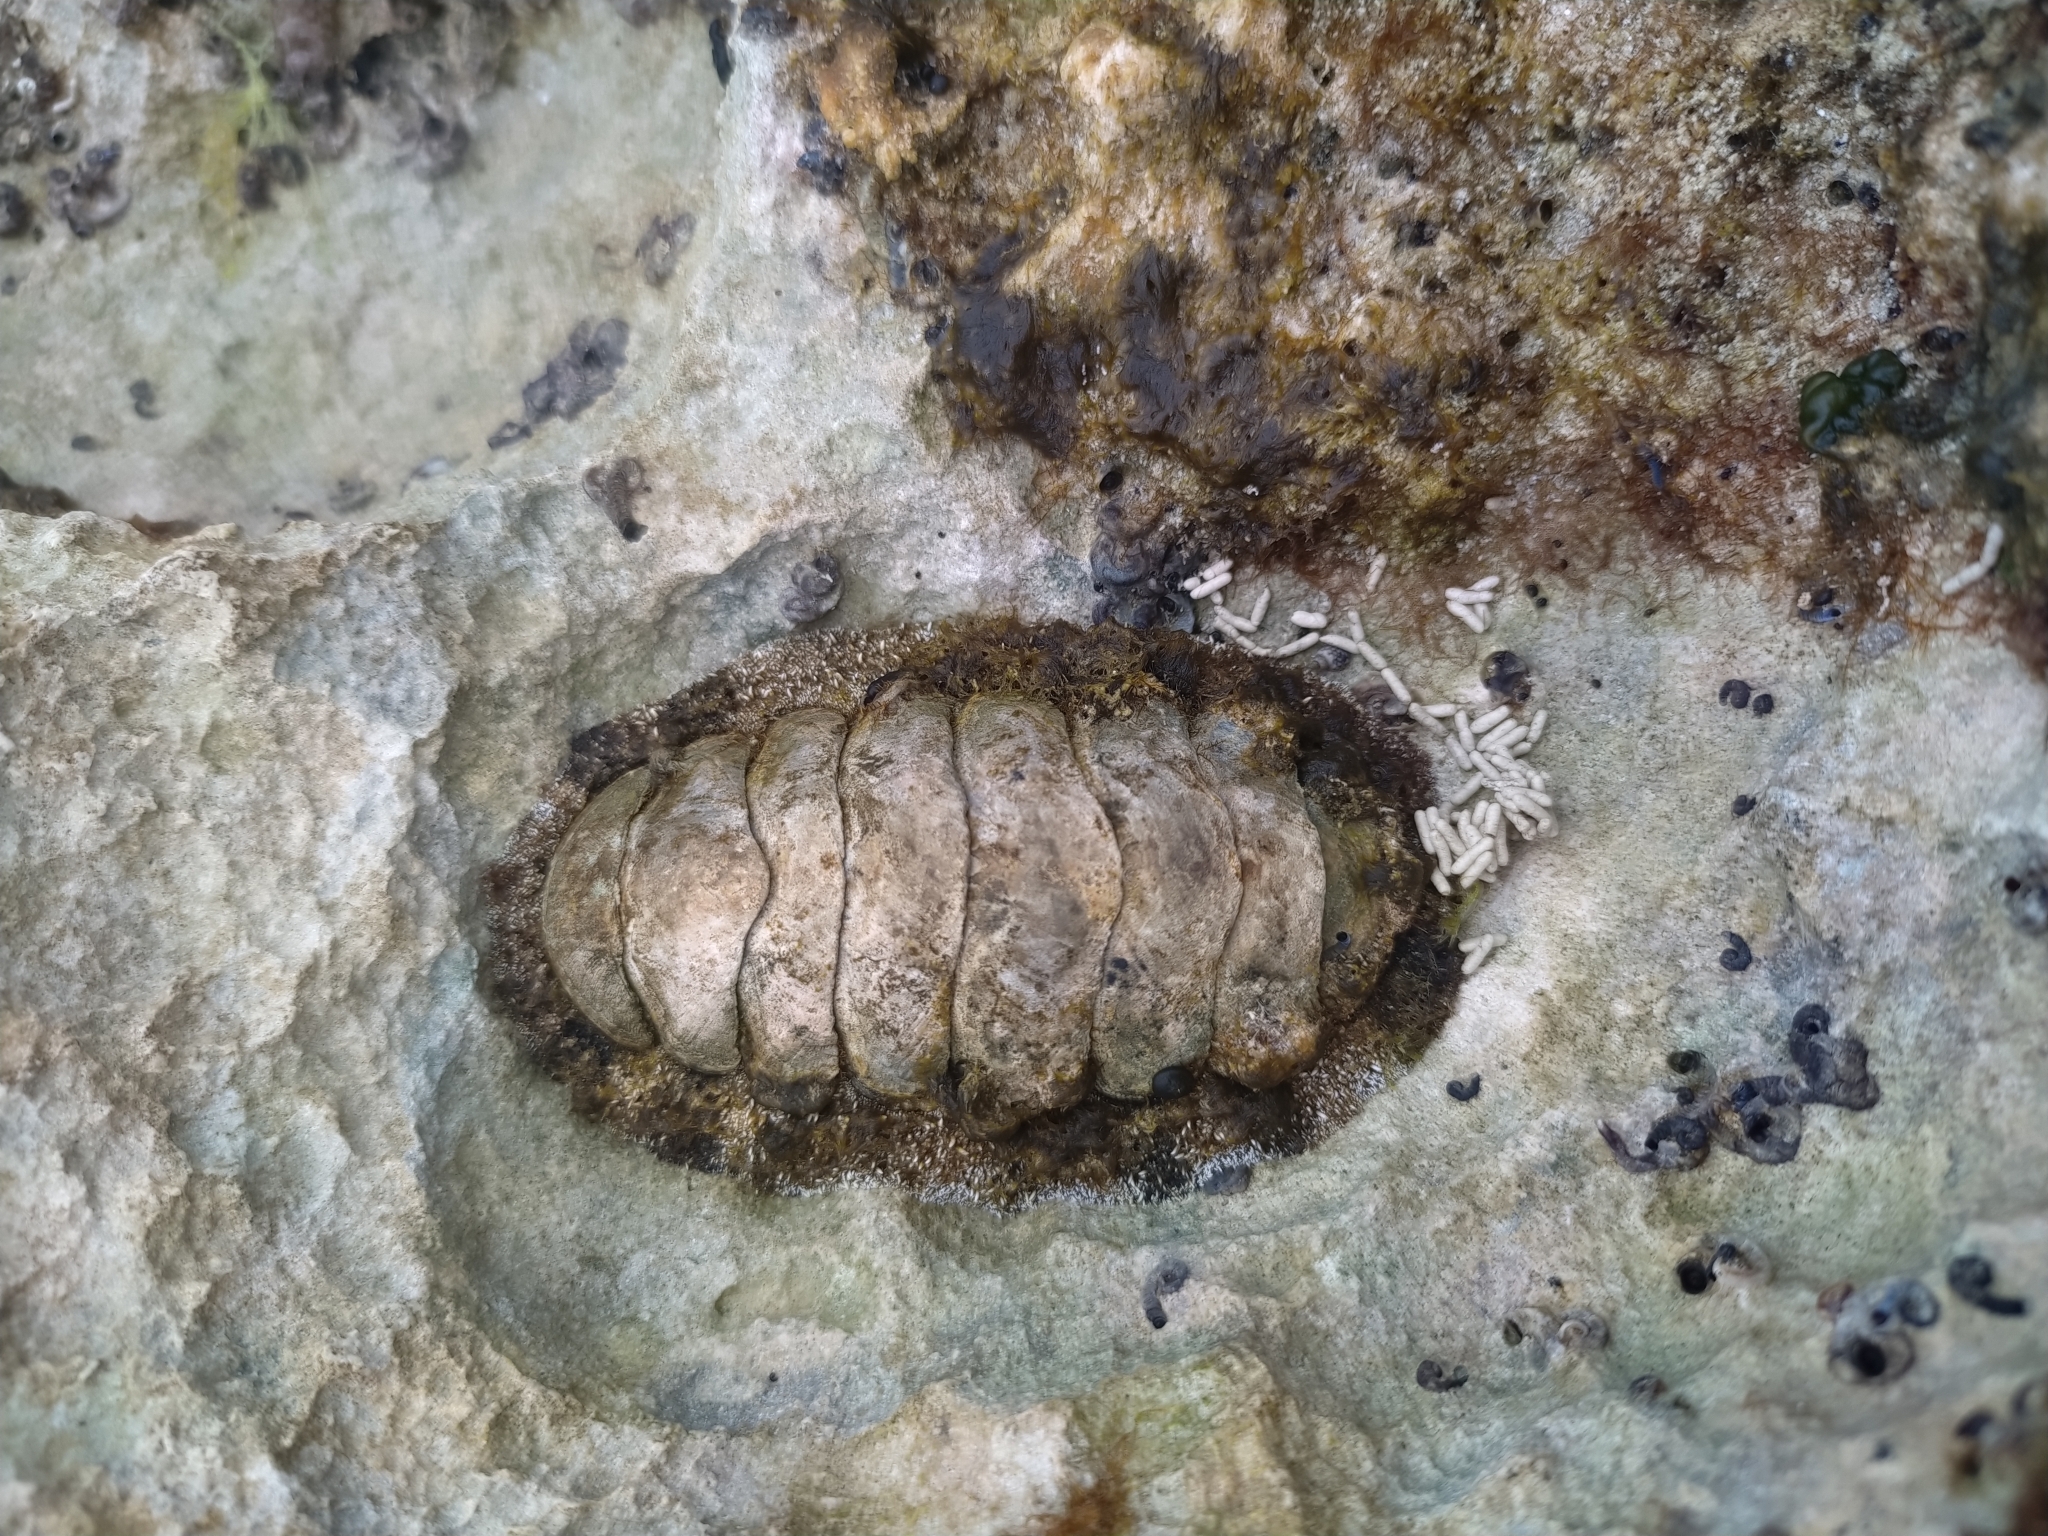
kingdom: Animalia
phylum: Mollusca
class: Polyplacophora
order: Chitonida
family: Chitonidae
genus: Acanthopleura
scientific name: Acanthopleura granulata
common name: West indian fuzzy chiton
